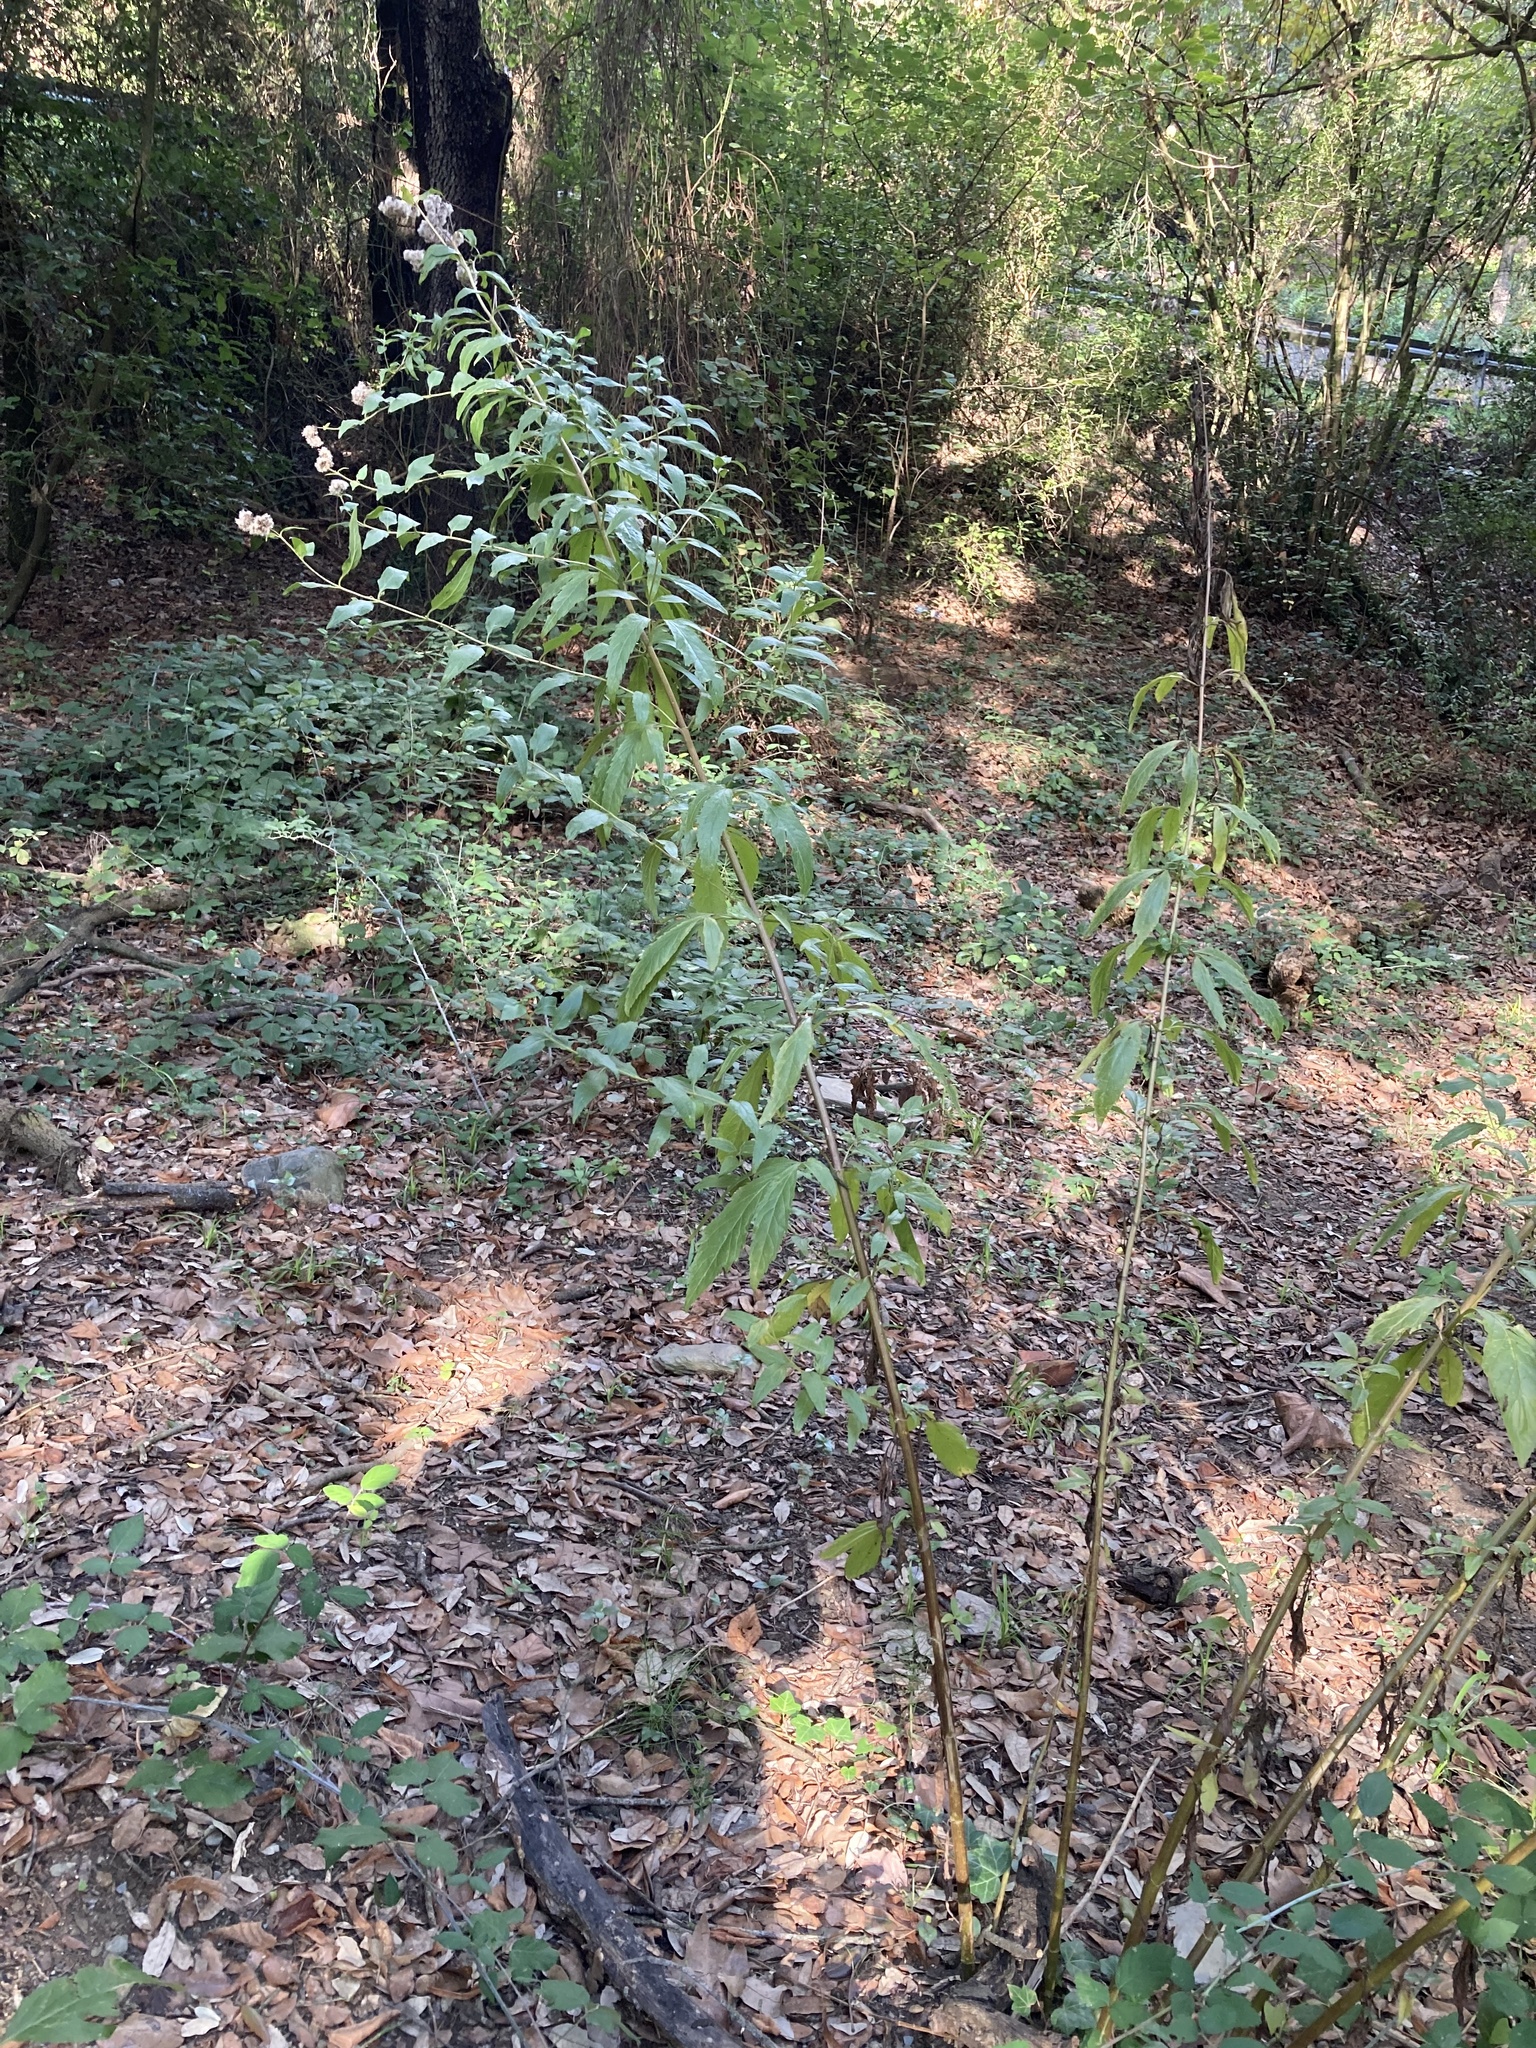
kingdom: Plantae
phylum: Tracheophyta
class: Magnoliopsida
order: Asterales
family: Asteraceae
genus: Eupatorium
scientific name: Eupatorium cannabinum
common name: Hemp-agrimony
